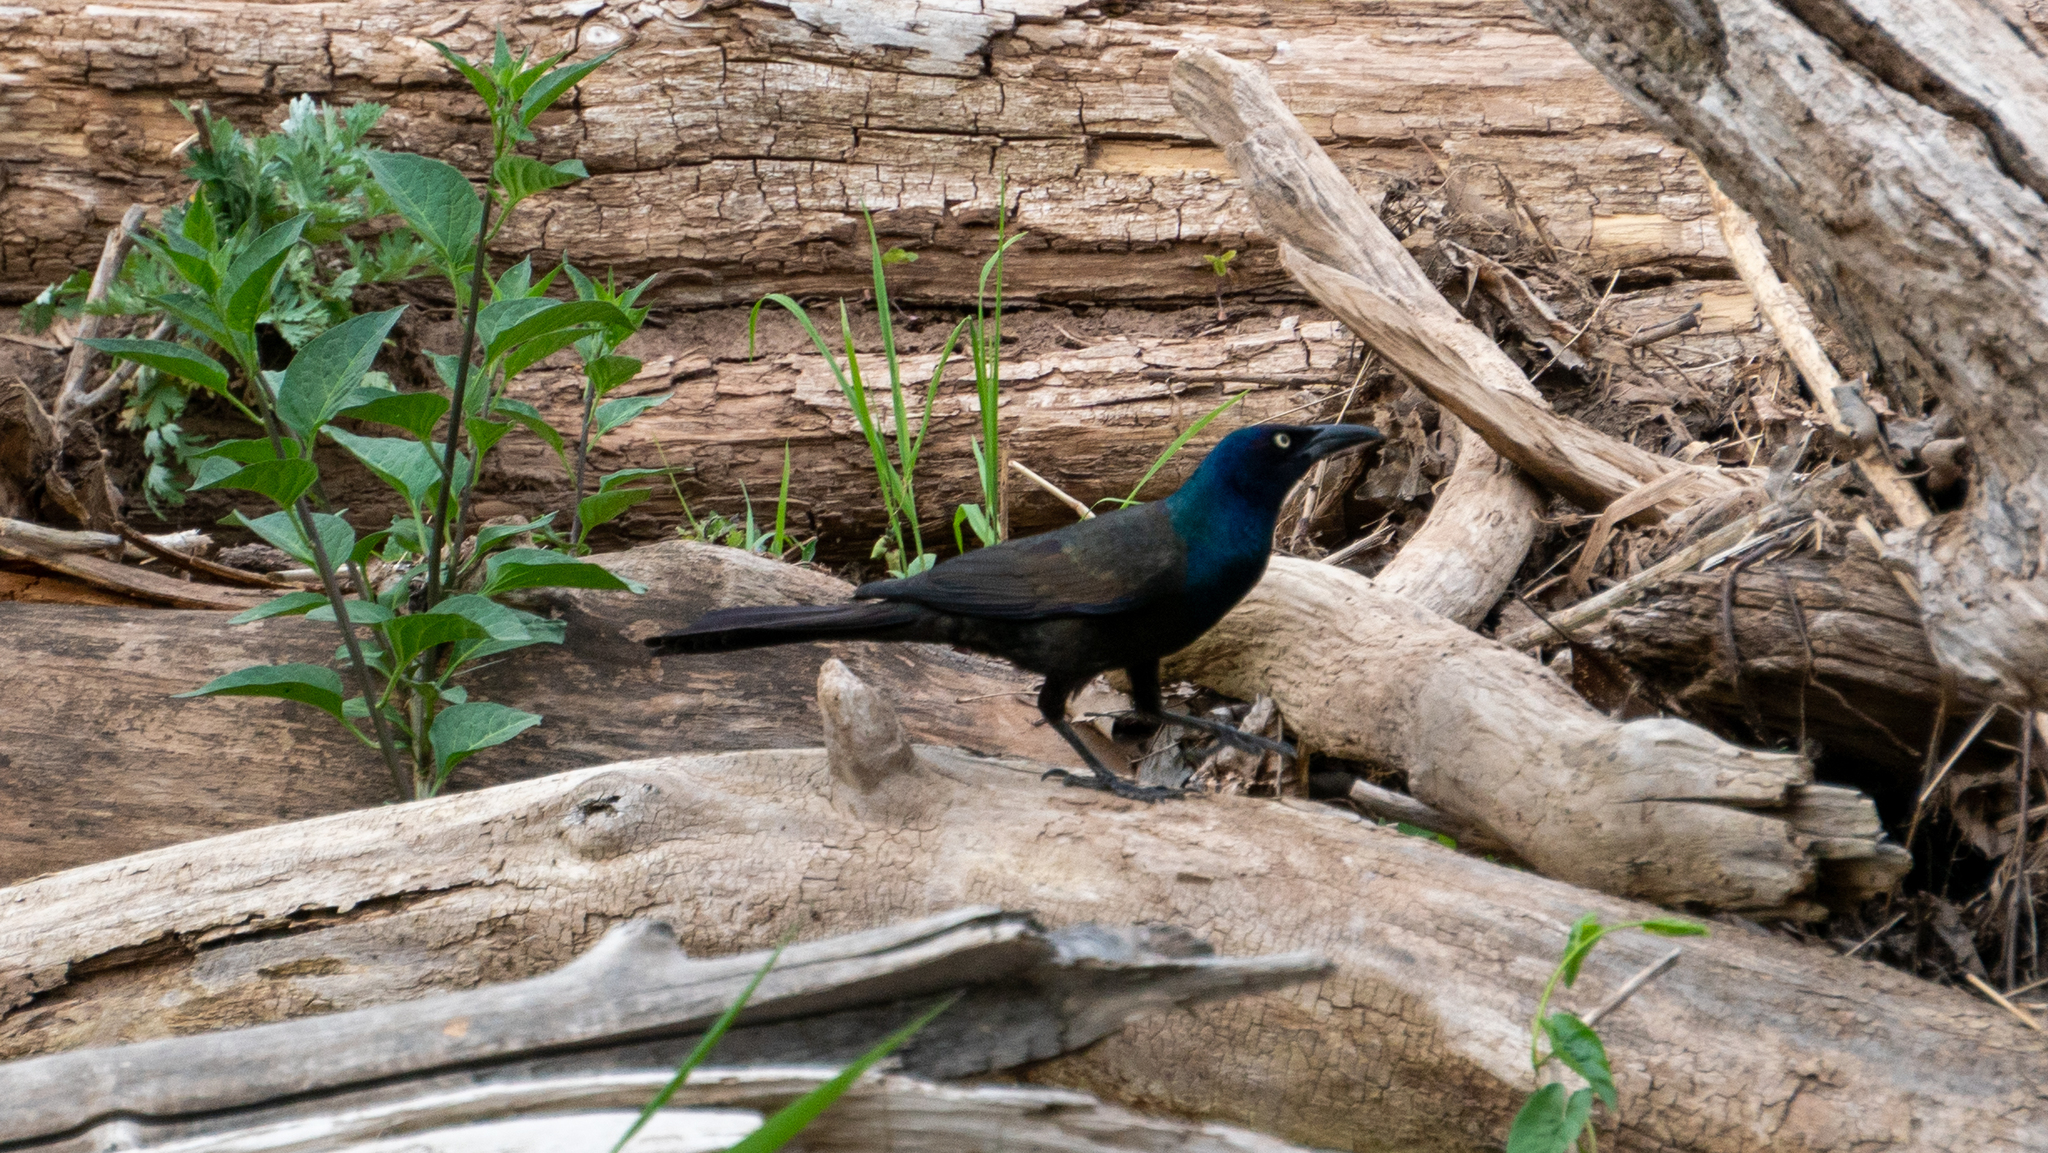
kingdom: Animalia
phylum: Chordata
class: Aves
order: Passeriformes
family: Icteridae
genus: Quiscalus
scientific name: Quiscalus quiscula
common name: Common grackle
